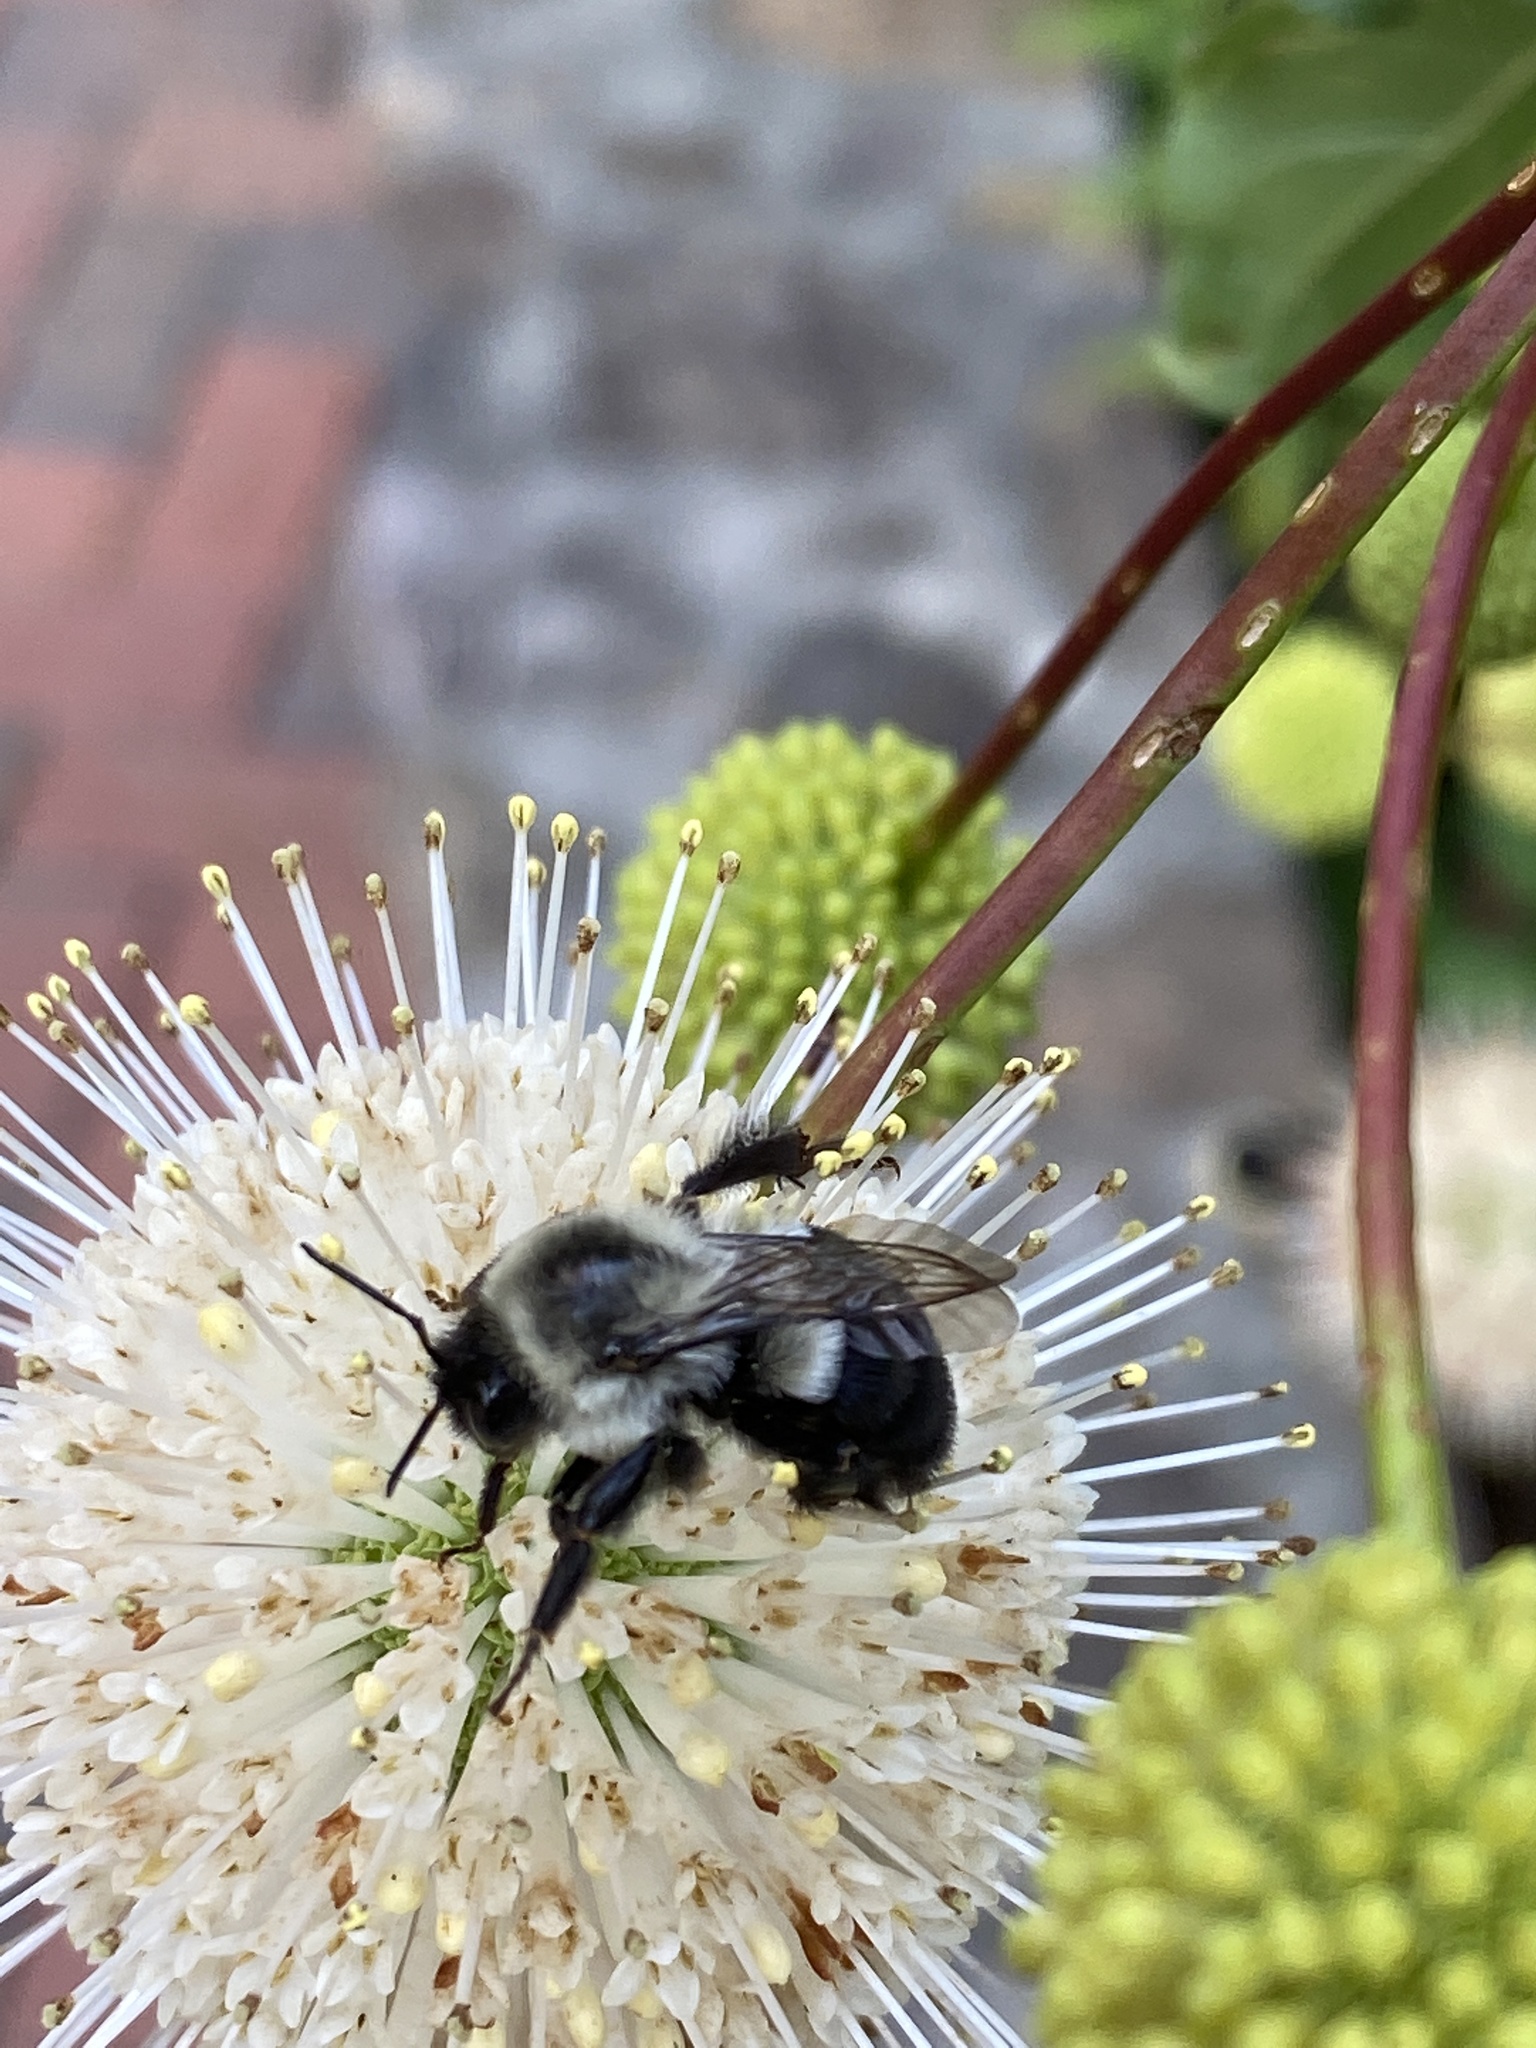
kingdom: Animalia
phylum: Arthropoda
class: Insecta
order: Hymenoptera
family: Apidae
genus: Bombus
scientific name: Bombus impatiens
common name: Common eastern bumble bee
